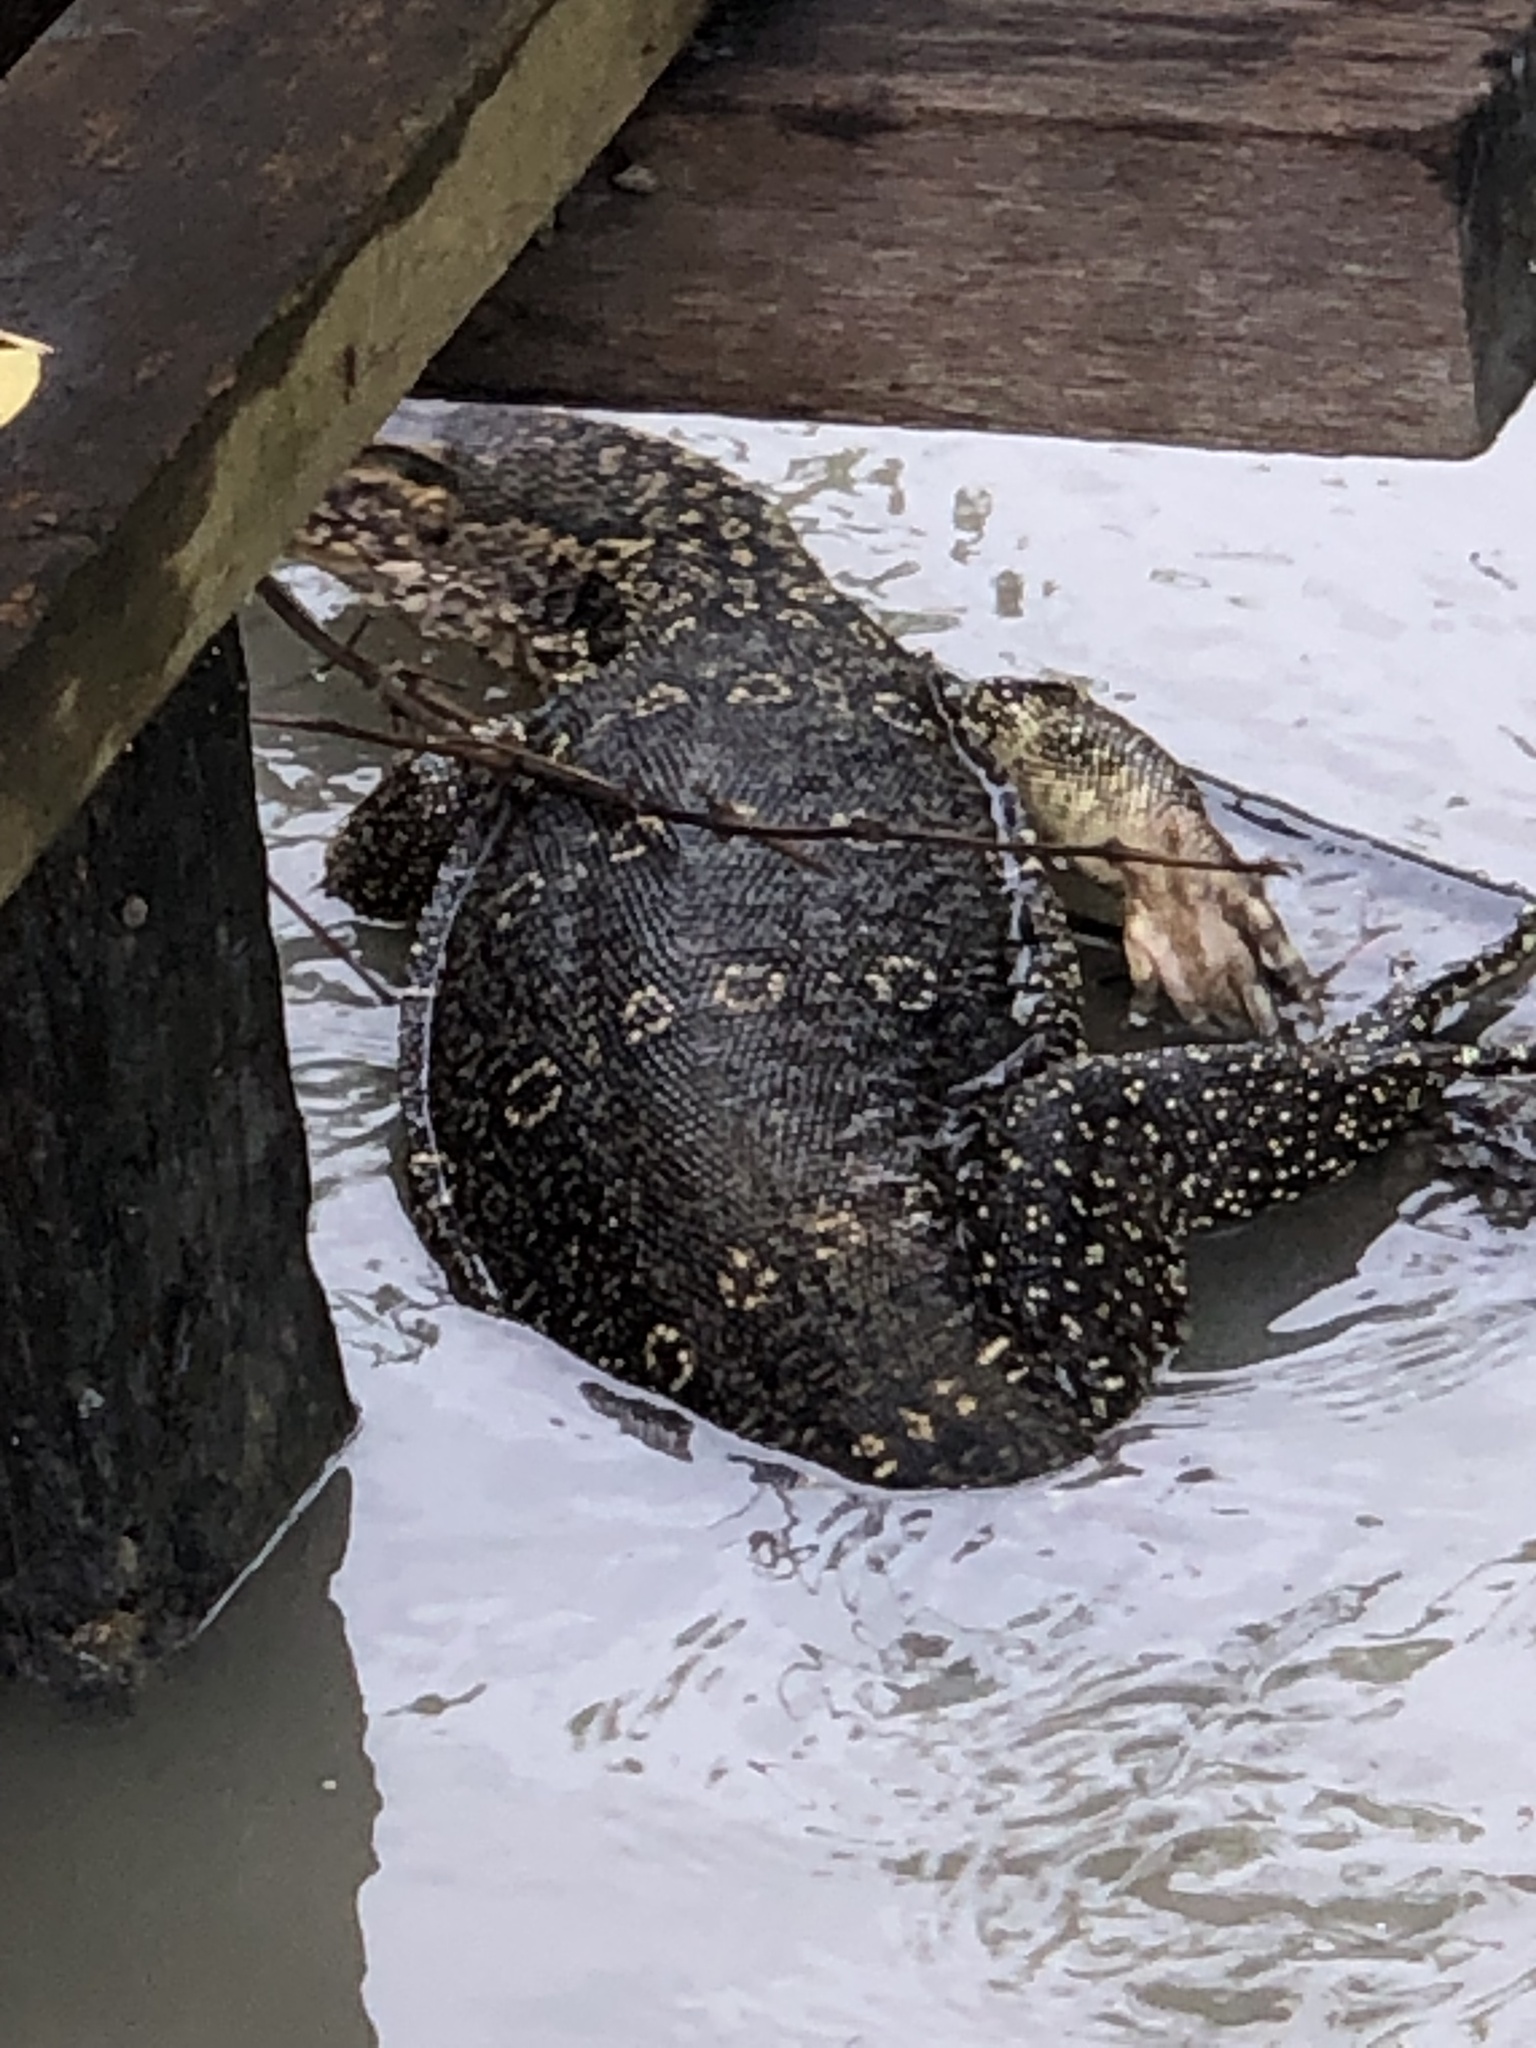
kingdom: Animalia
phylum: Chordata
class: Squamata
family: Varanidae
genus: Varanus
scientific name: Varanus salvator
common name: Common water monitor
